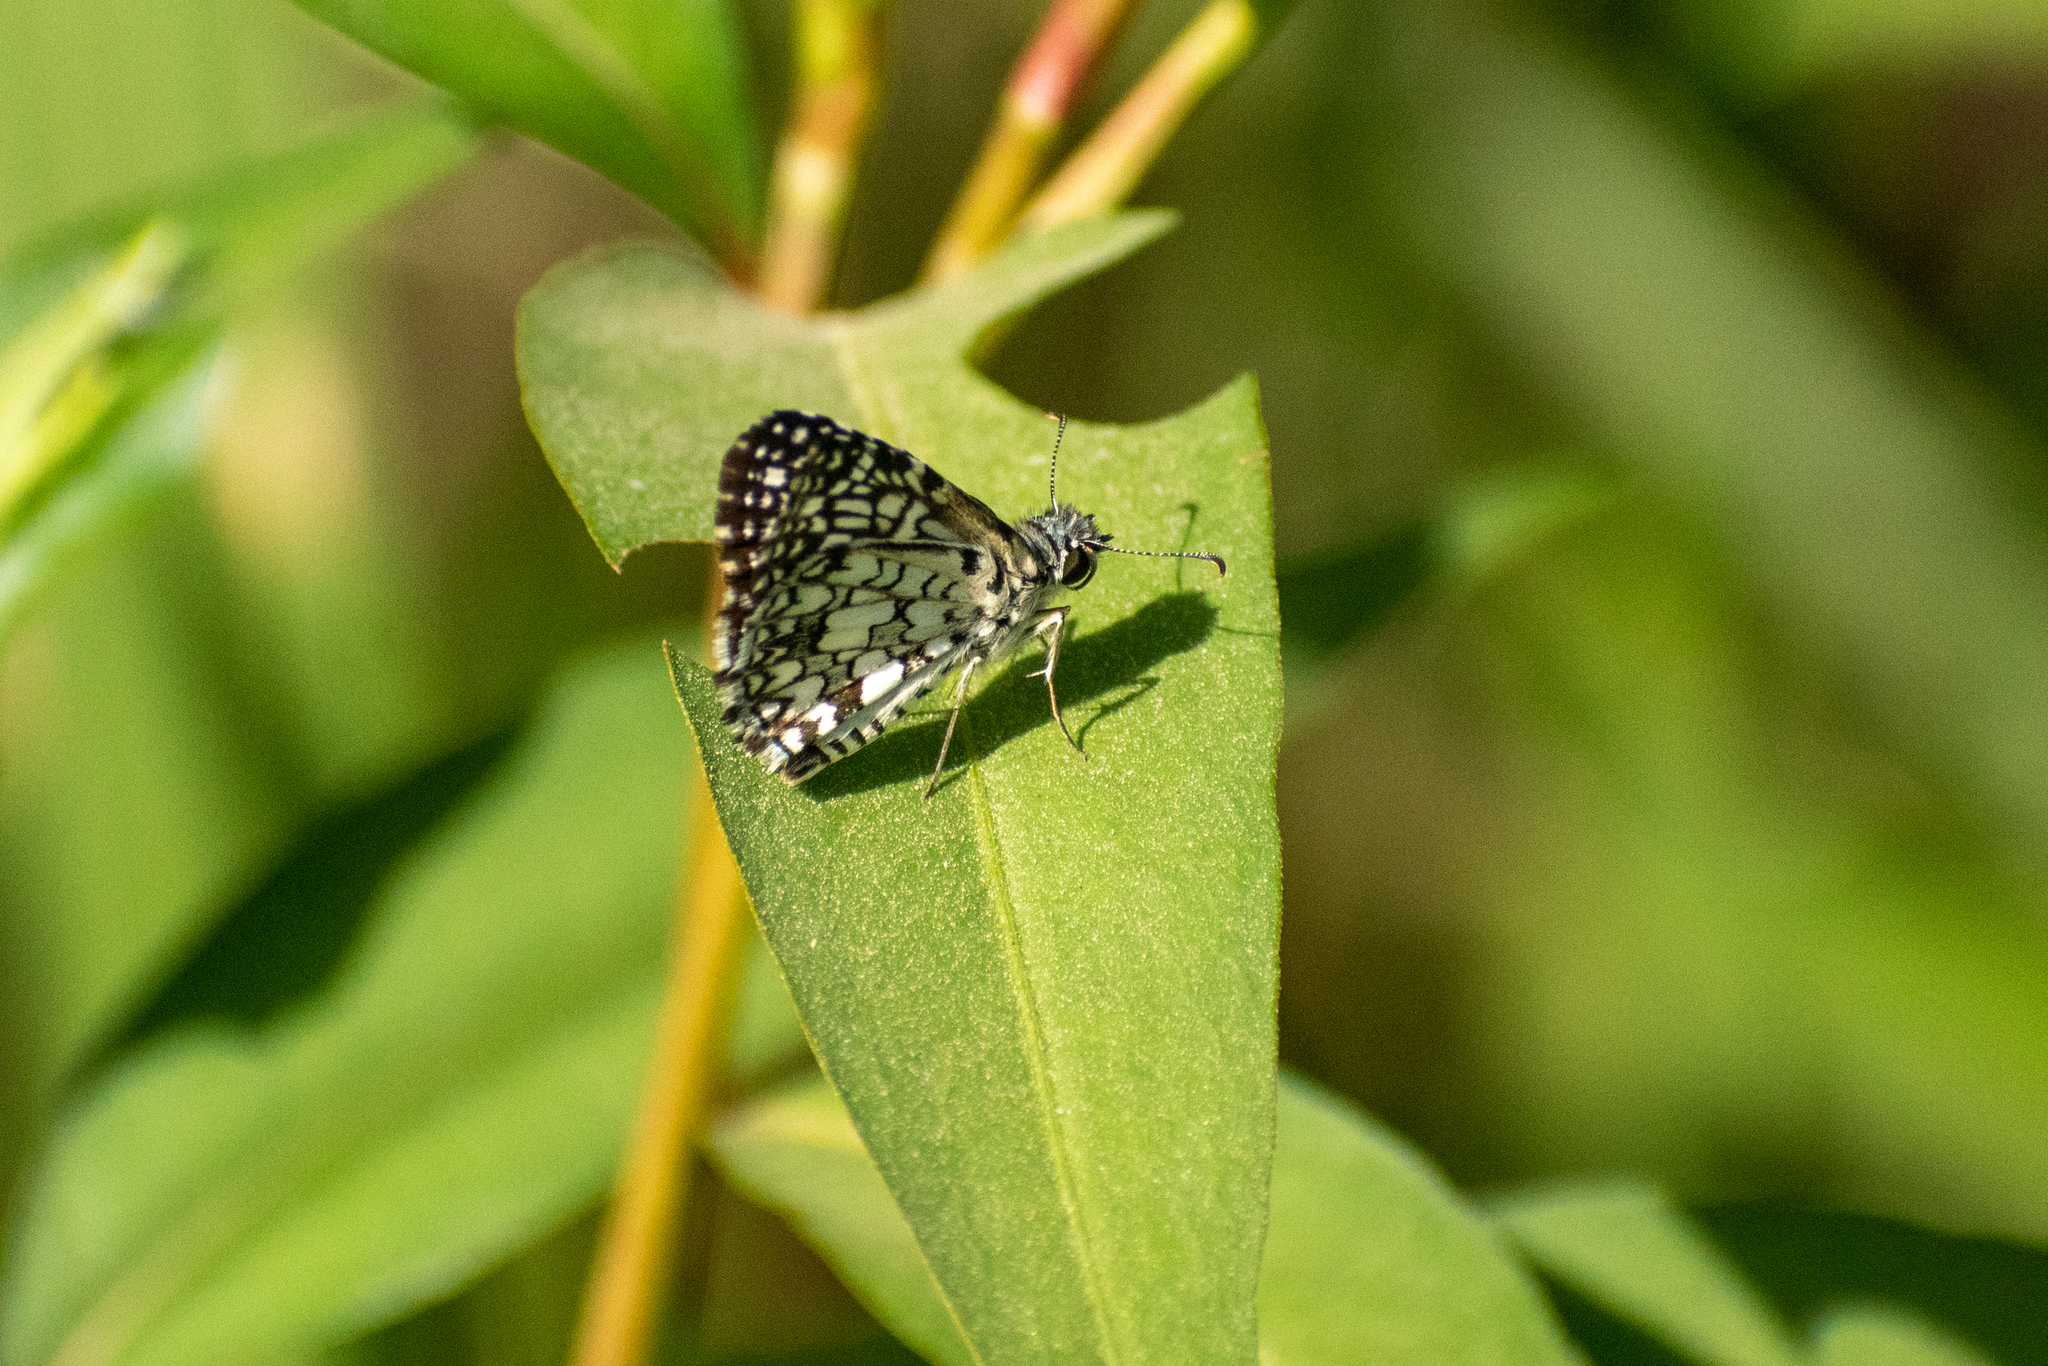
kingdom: Animalia
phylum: Arthropoda
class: Insecta
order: Lepidoptera
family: Hesperiidae
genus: Pyrgus
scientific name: Pyrgus oileus
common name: Tropical checkered-skipper
